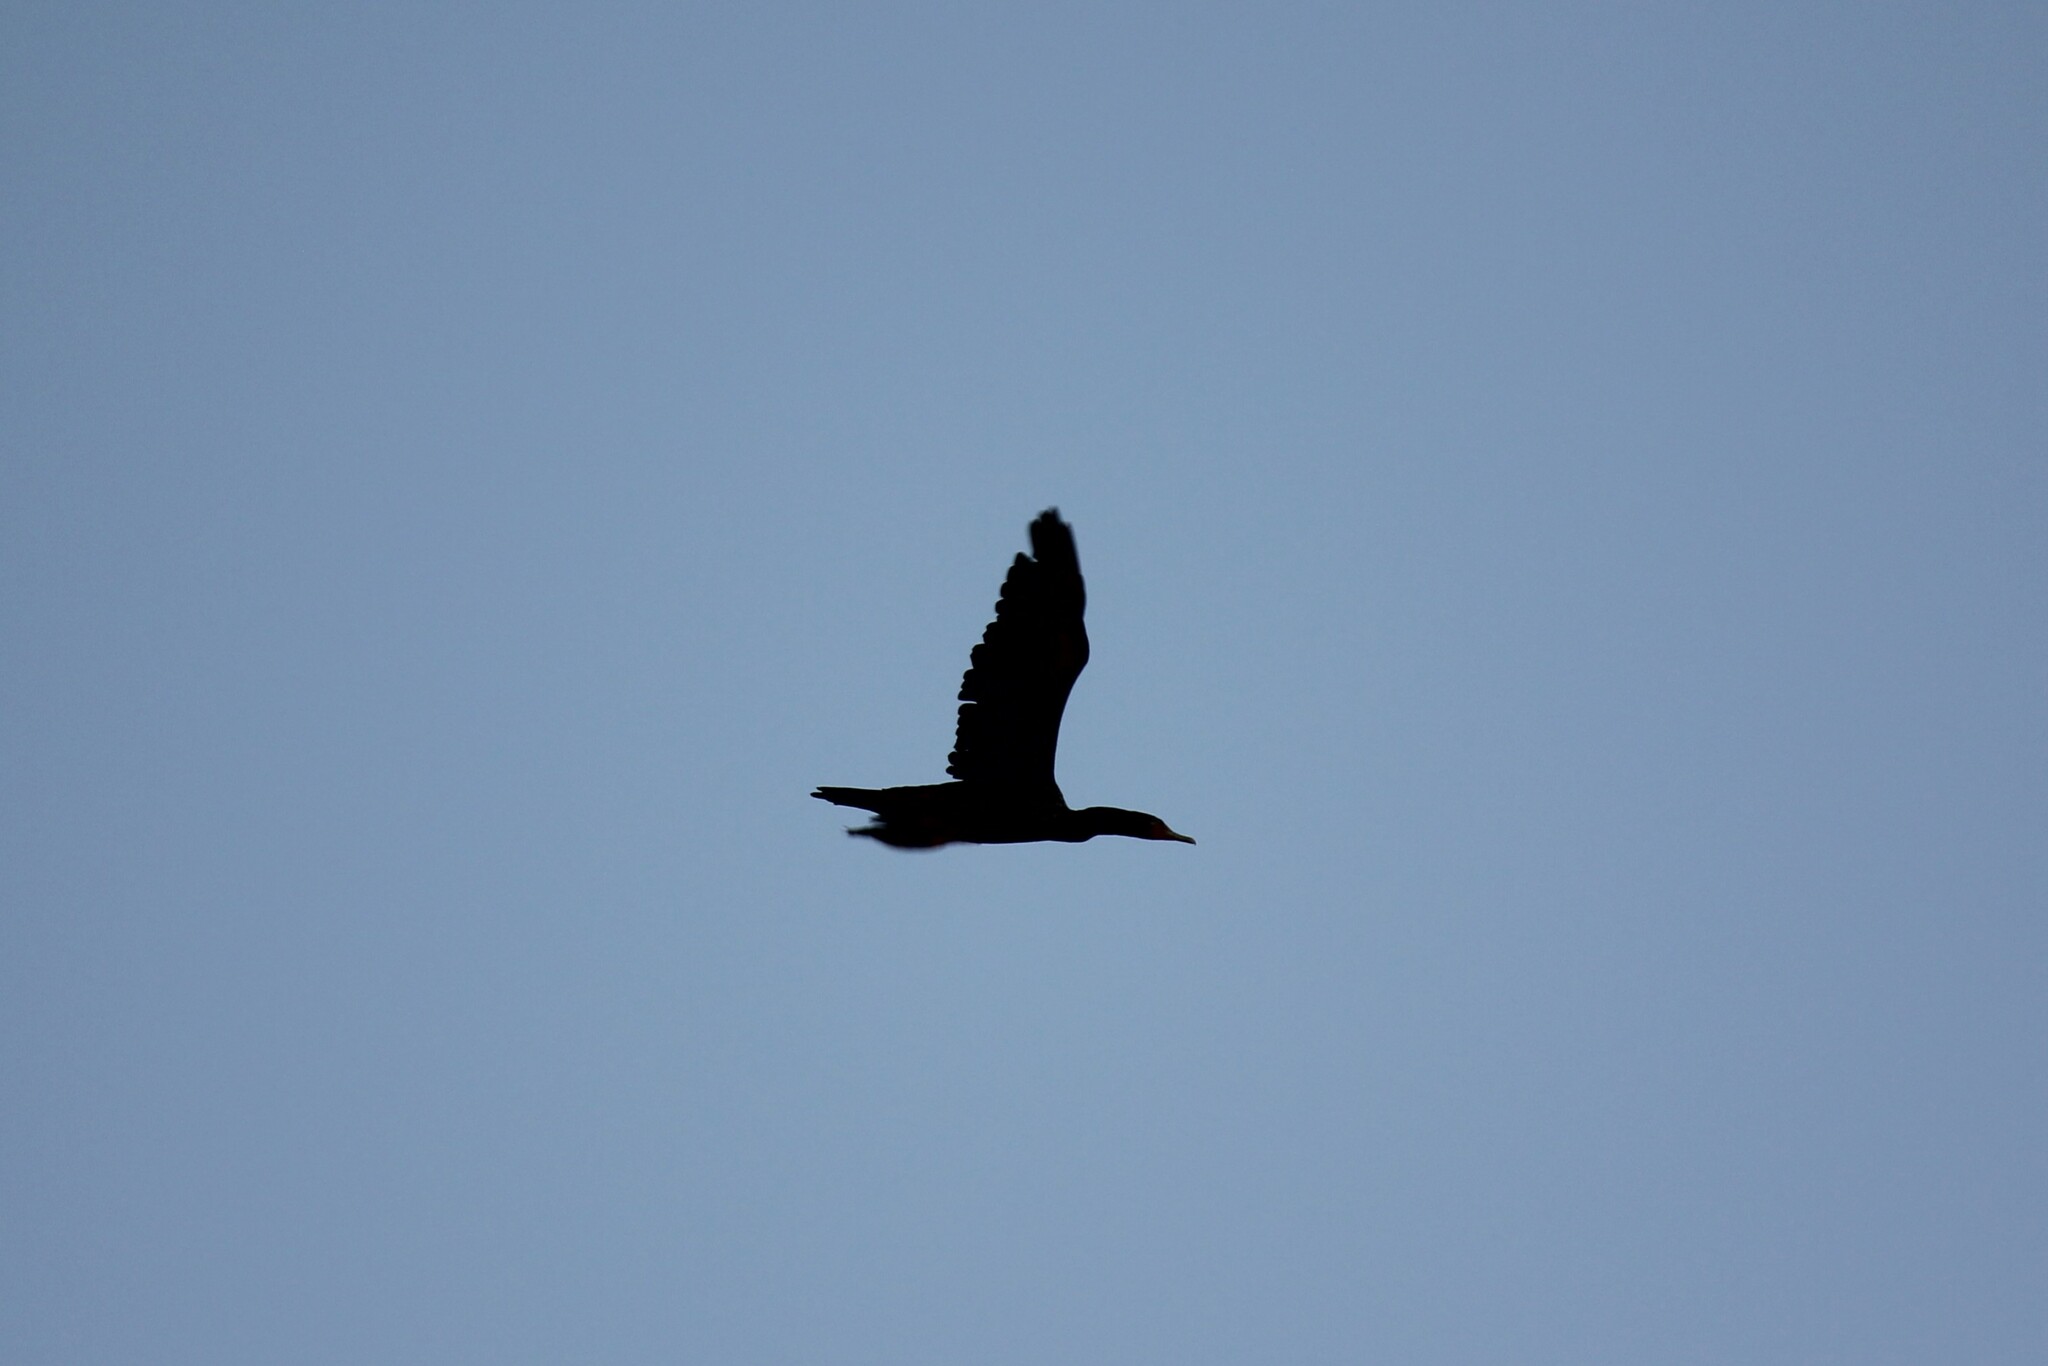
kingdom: Animalia
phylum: Chordata
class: Aves
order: Suliformes
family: Phalacrocoracidae
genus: Phalacrocorax
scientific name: Phalacrocorax auritus
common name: Double-crested cormorant
